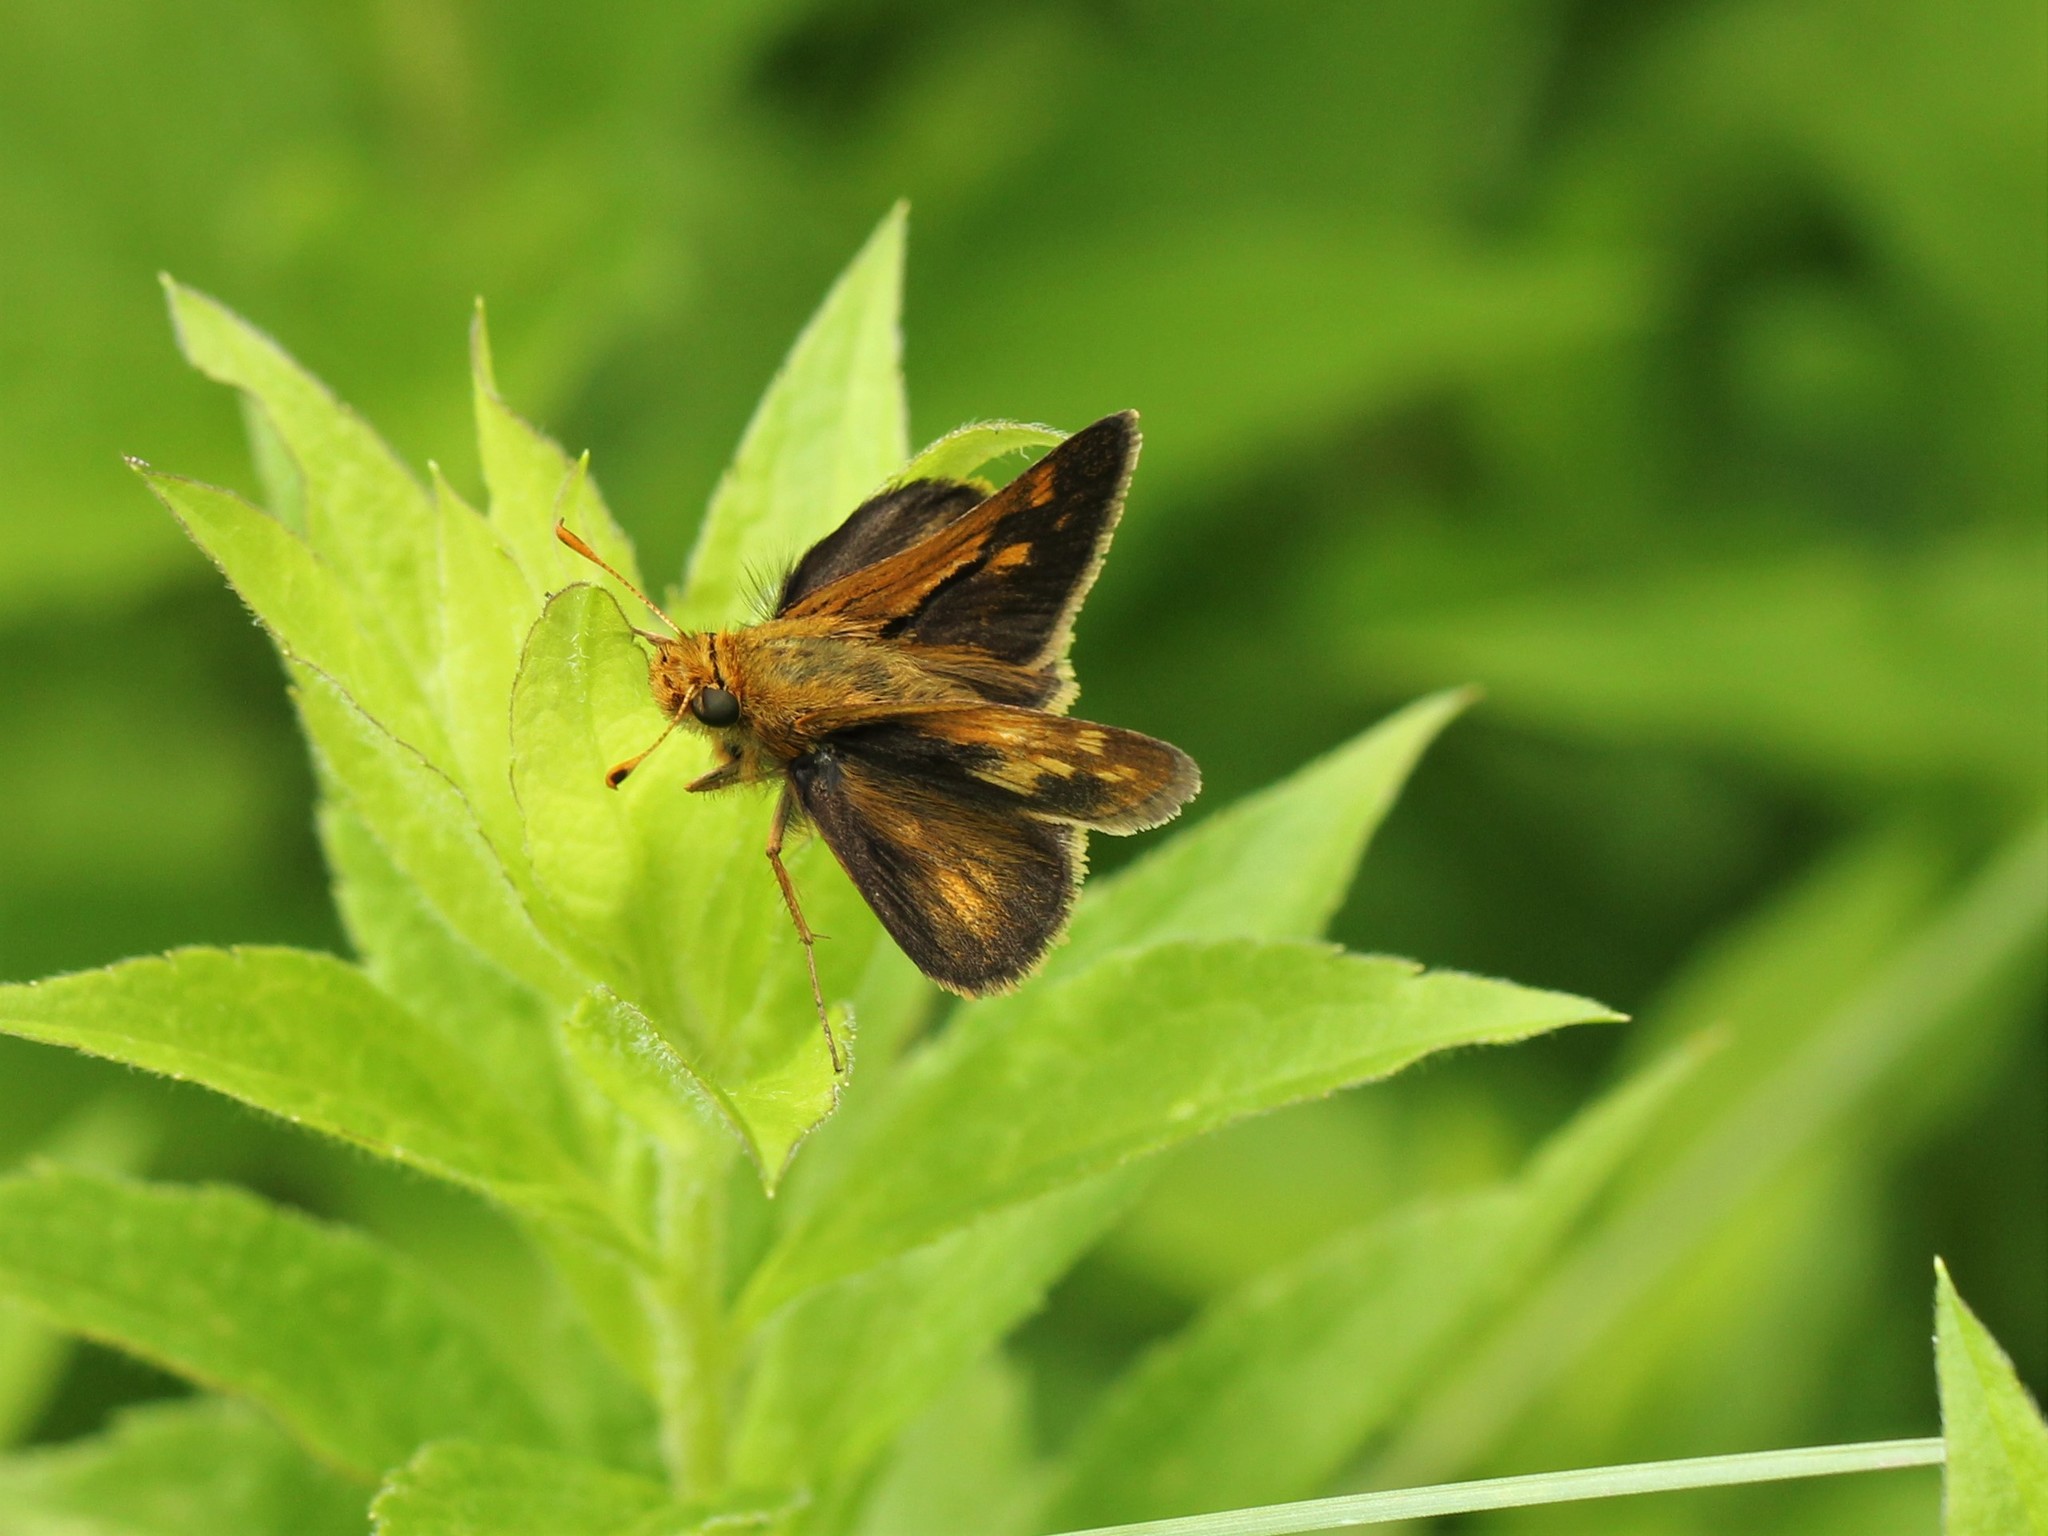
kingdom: Animalia
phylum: Arthropoda
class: Insecta
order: Lepidoptera
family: Hesperiidae
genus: Polites
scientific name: Polites coras
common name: Peck's skipper
